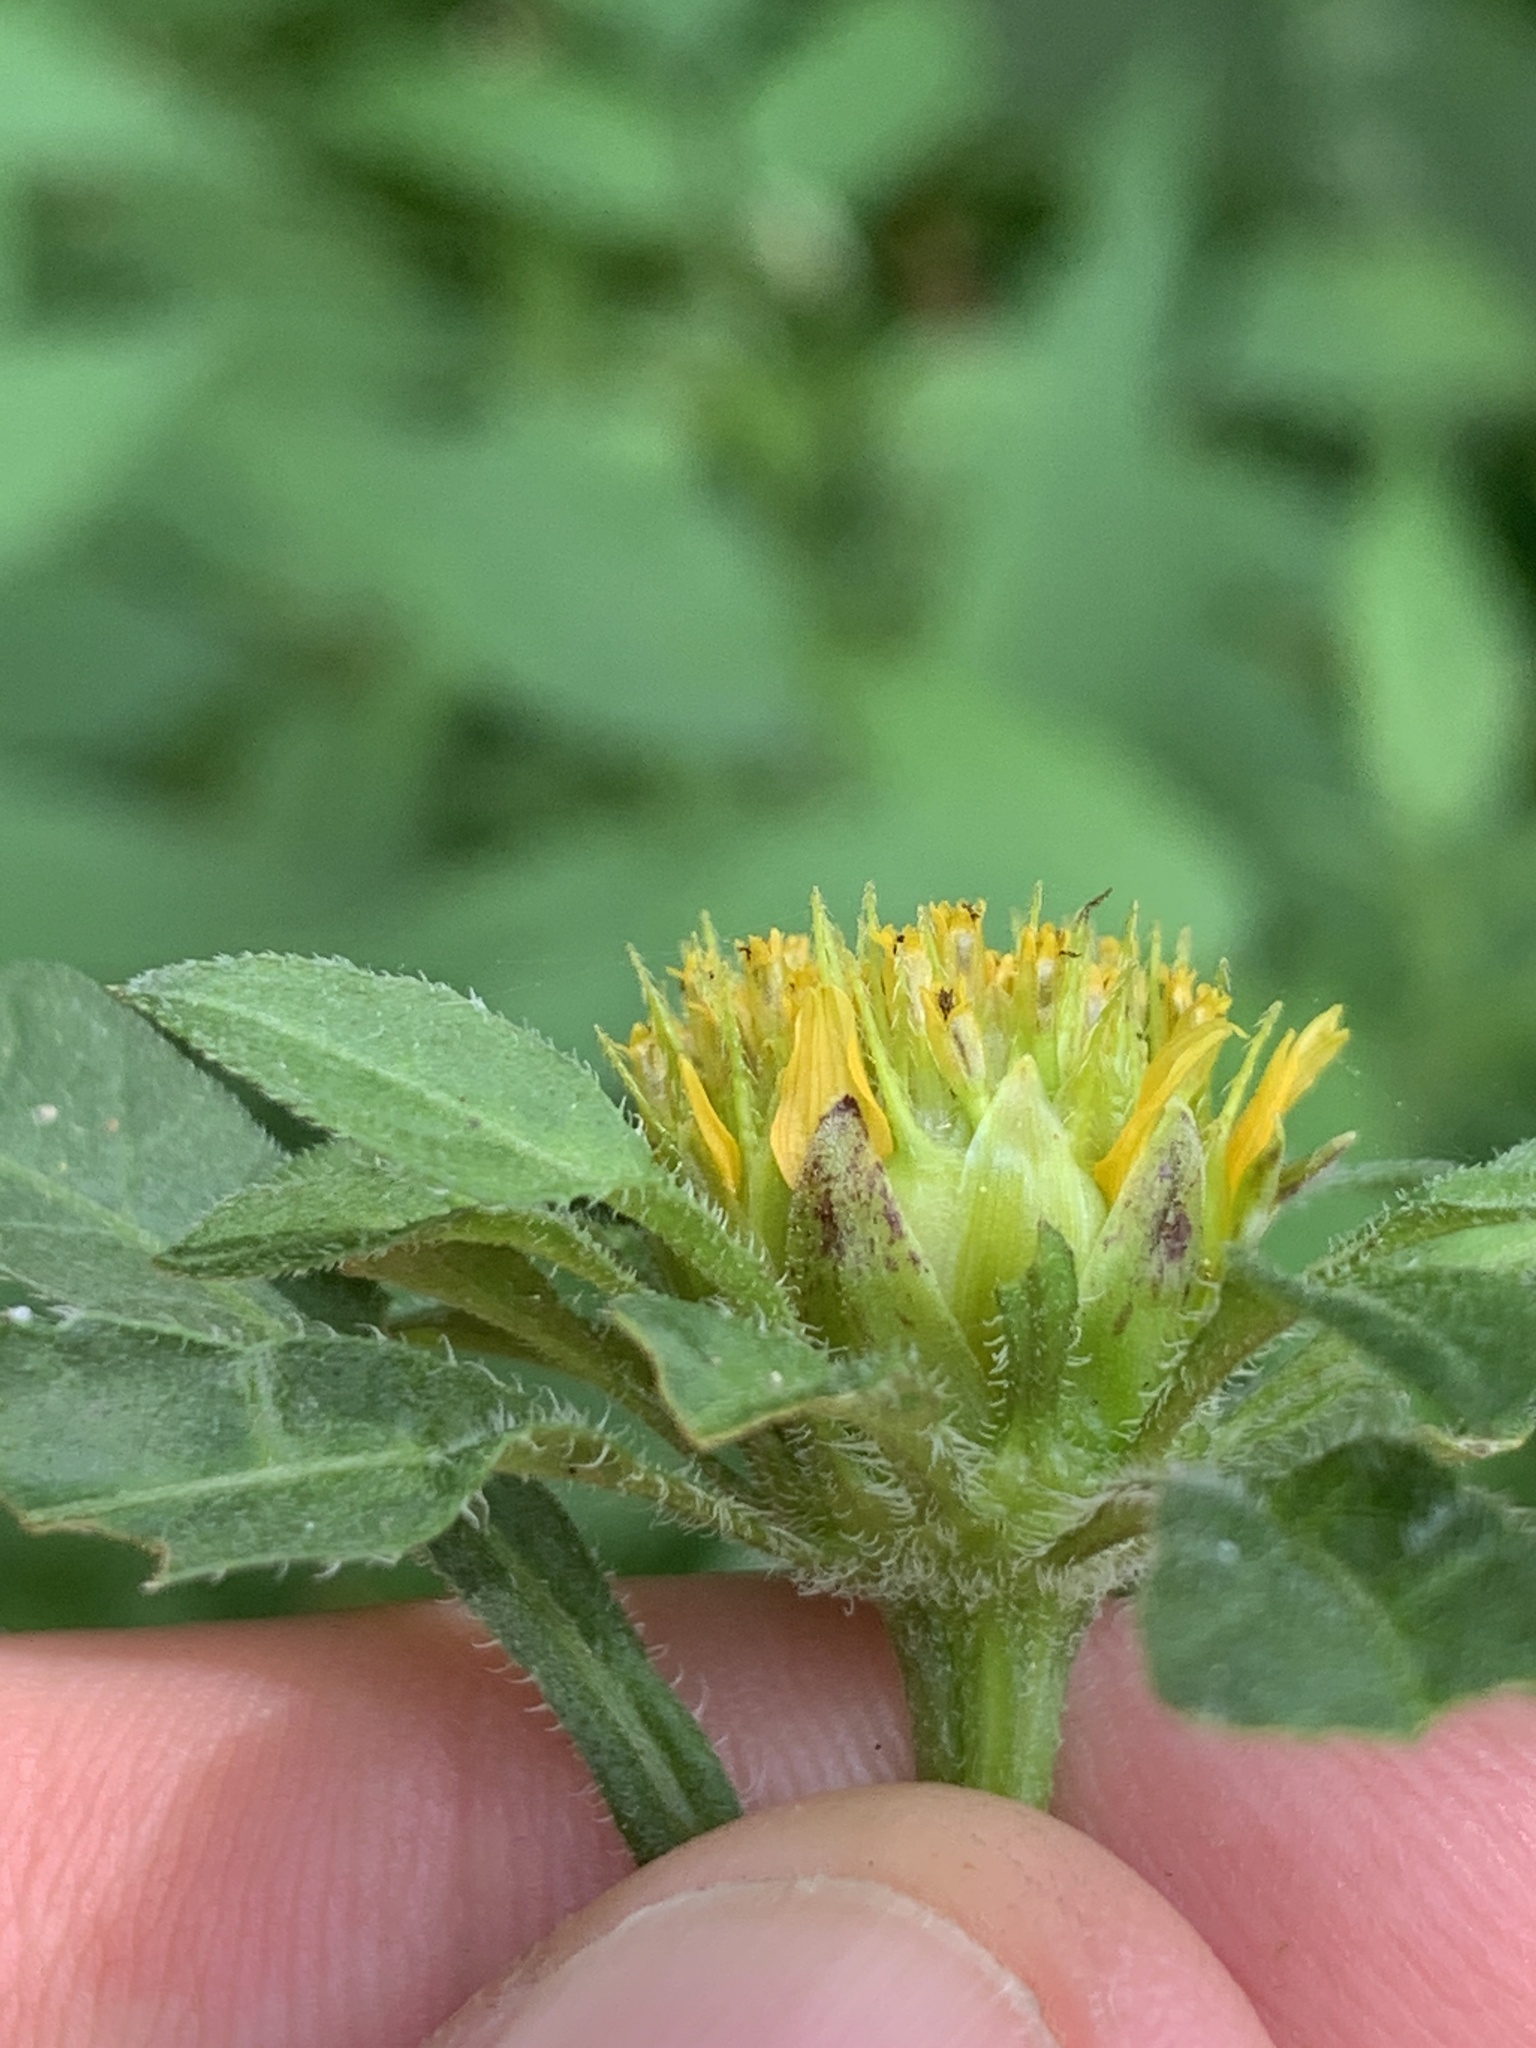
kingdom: Plantae
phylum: Tracheophyta
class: Magnoliopsida
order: Asterales
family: Asteraceae
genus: Bidens
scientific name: Bidens vulgata
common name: Tall beggarticks
